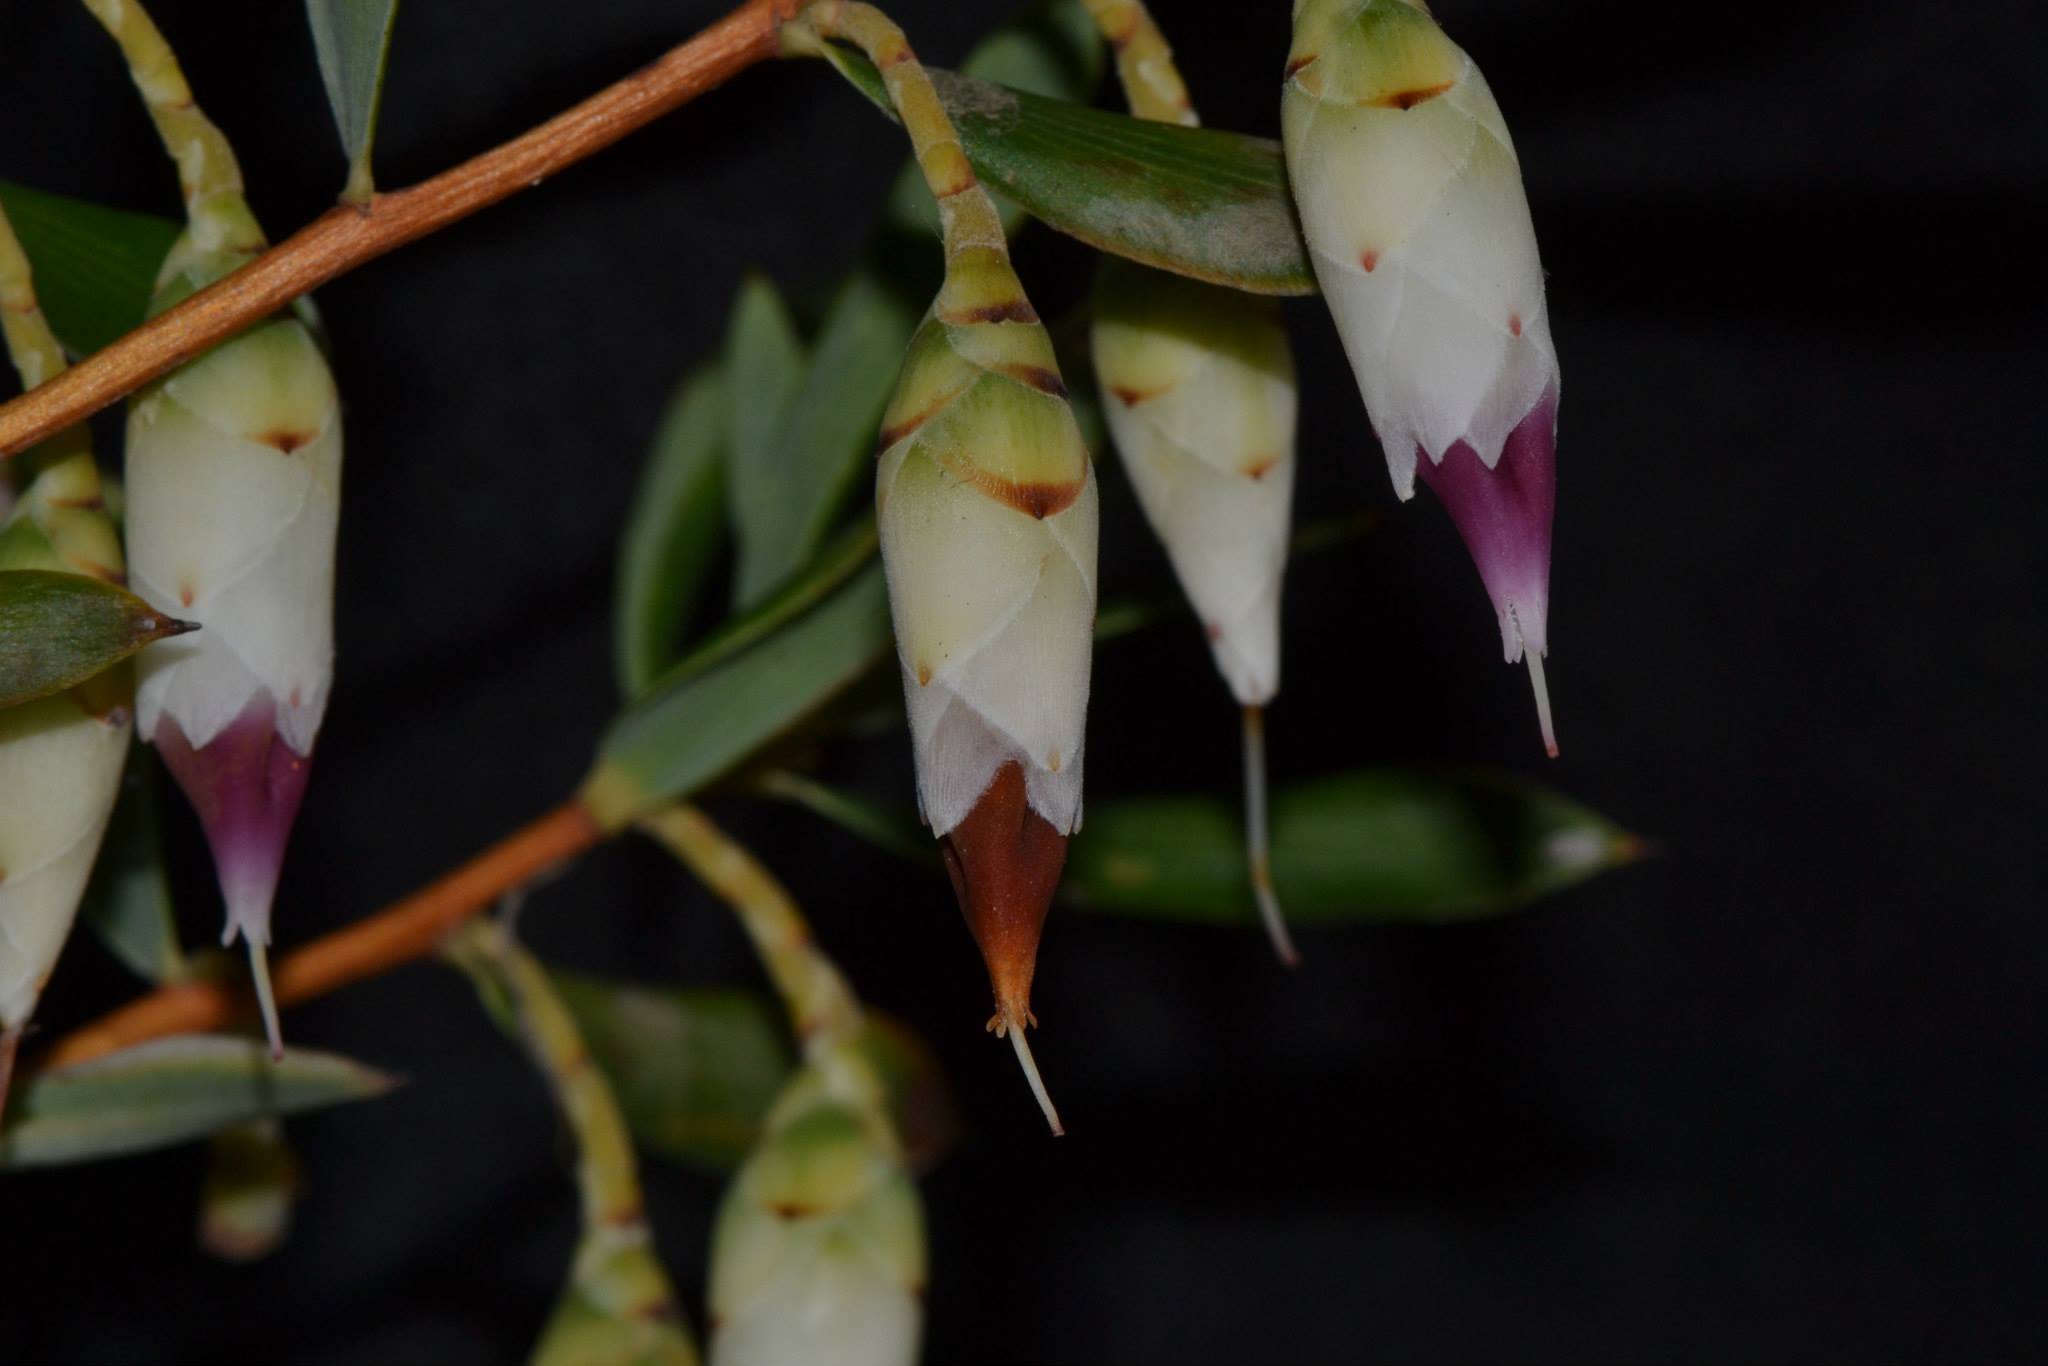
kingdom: Plantae
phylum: Tracheophyta
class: Magnoliopsida
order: Ericales
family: Ericaceae
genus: Conostephium
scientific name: Conostephium pendulum
